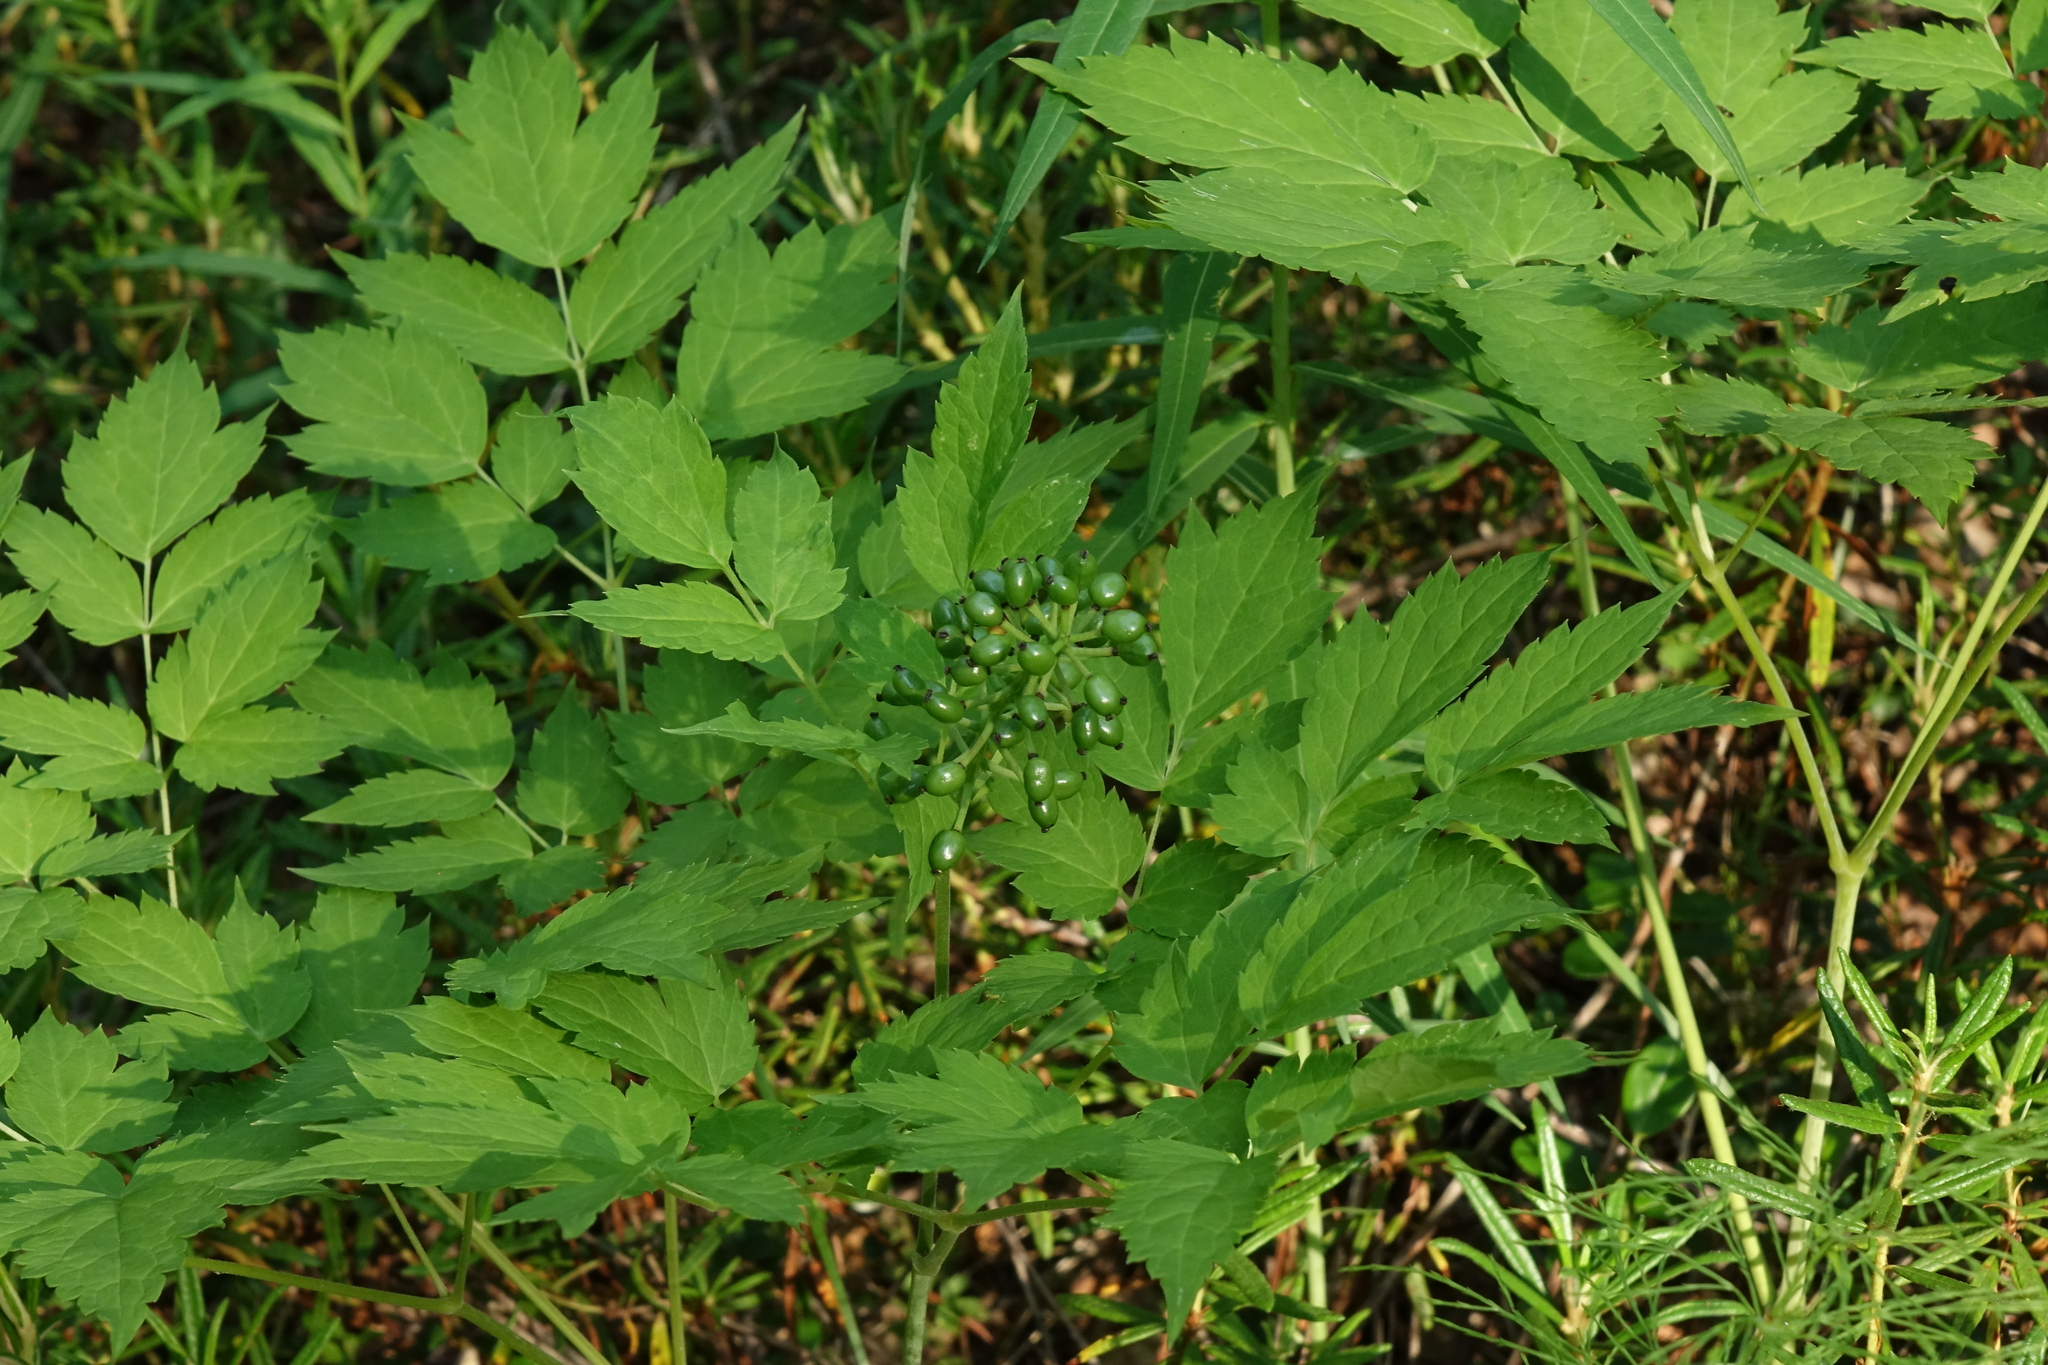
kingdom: Plantae
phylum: Tracheophyta
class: Magnoliopsida
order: Ranunculales
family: Ranunculaceae
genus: Actaea
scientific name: Actaea erythrocarpa
